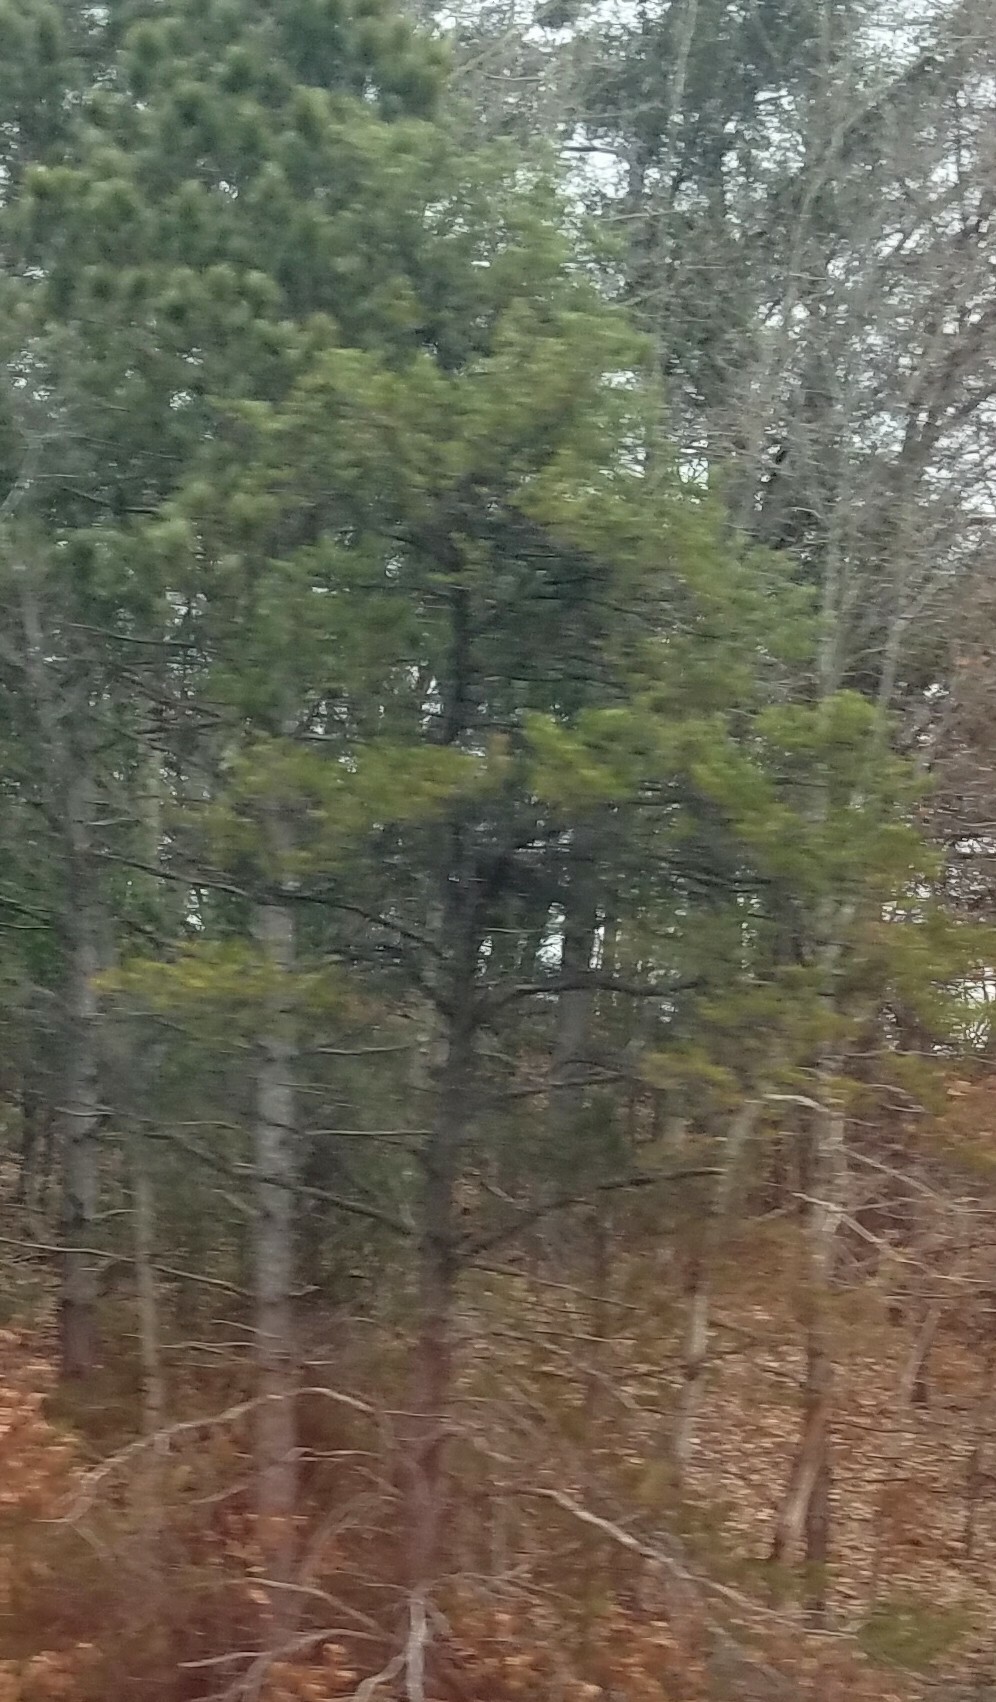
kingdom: Plantae
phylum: Tracheophyta
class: Pinopsida
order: Pinales
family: Pinaceae
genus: Pinus
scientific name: Pinus strobus
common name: Weymouth pine
